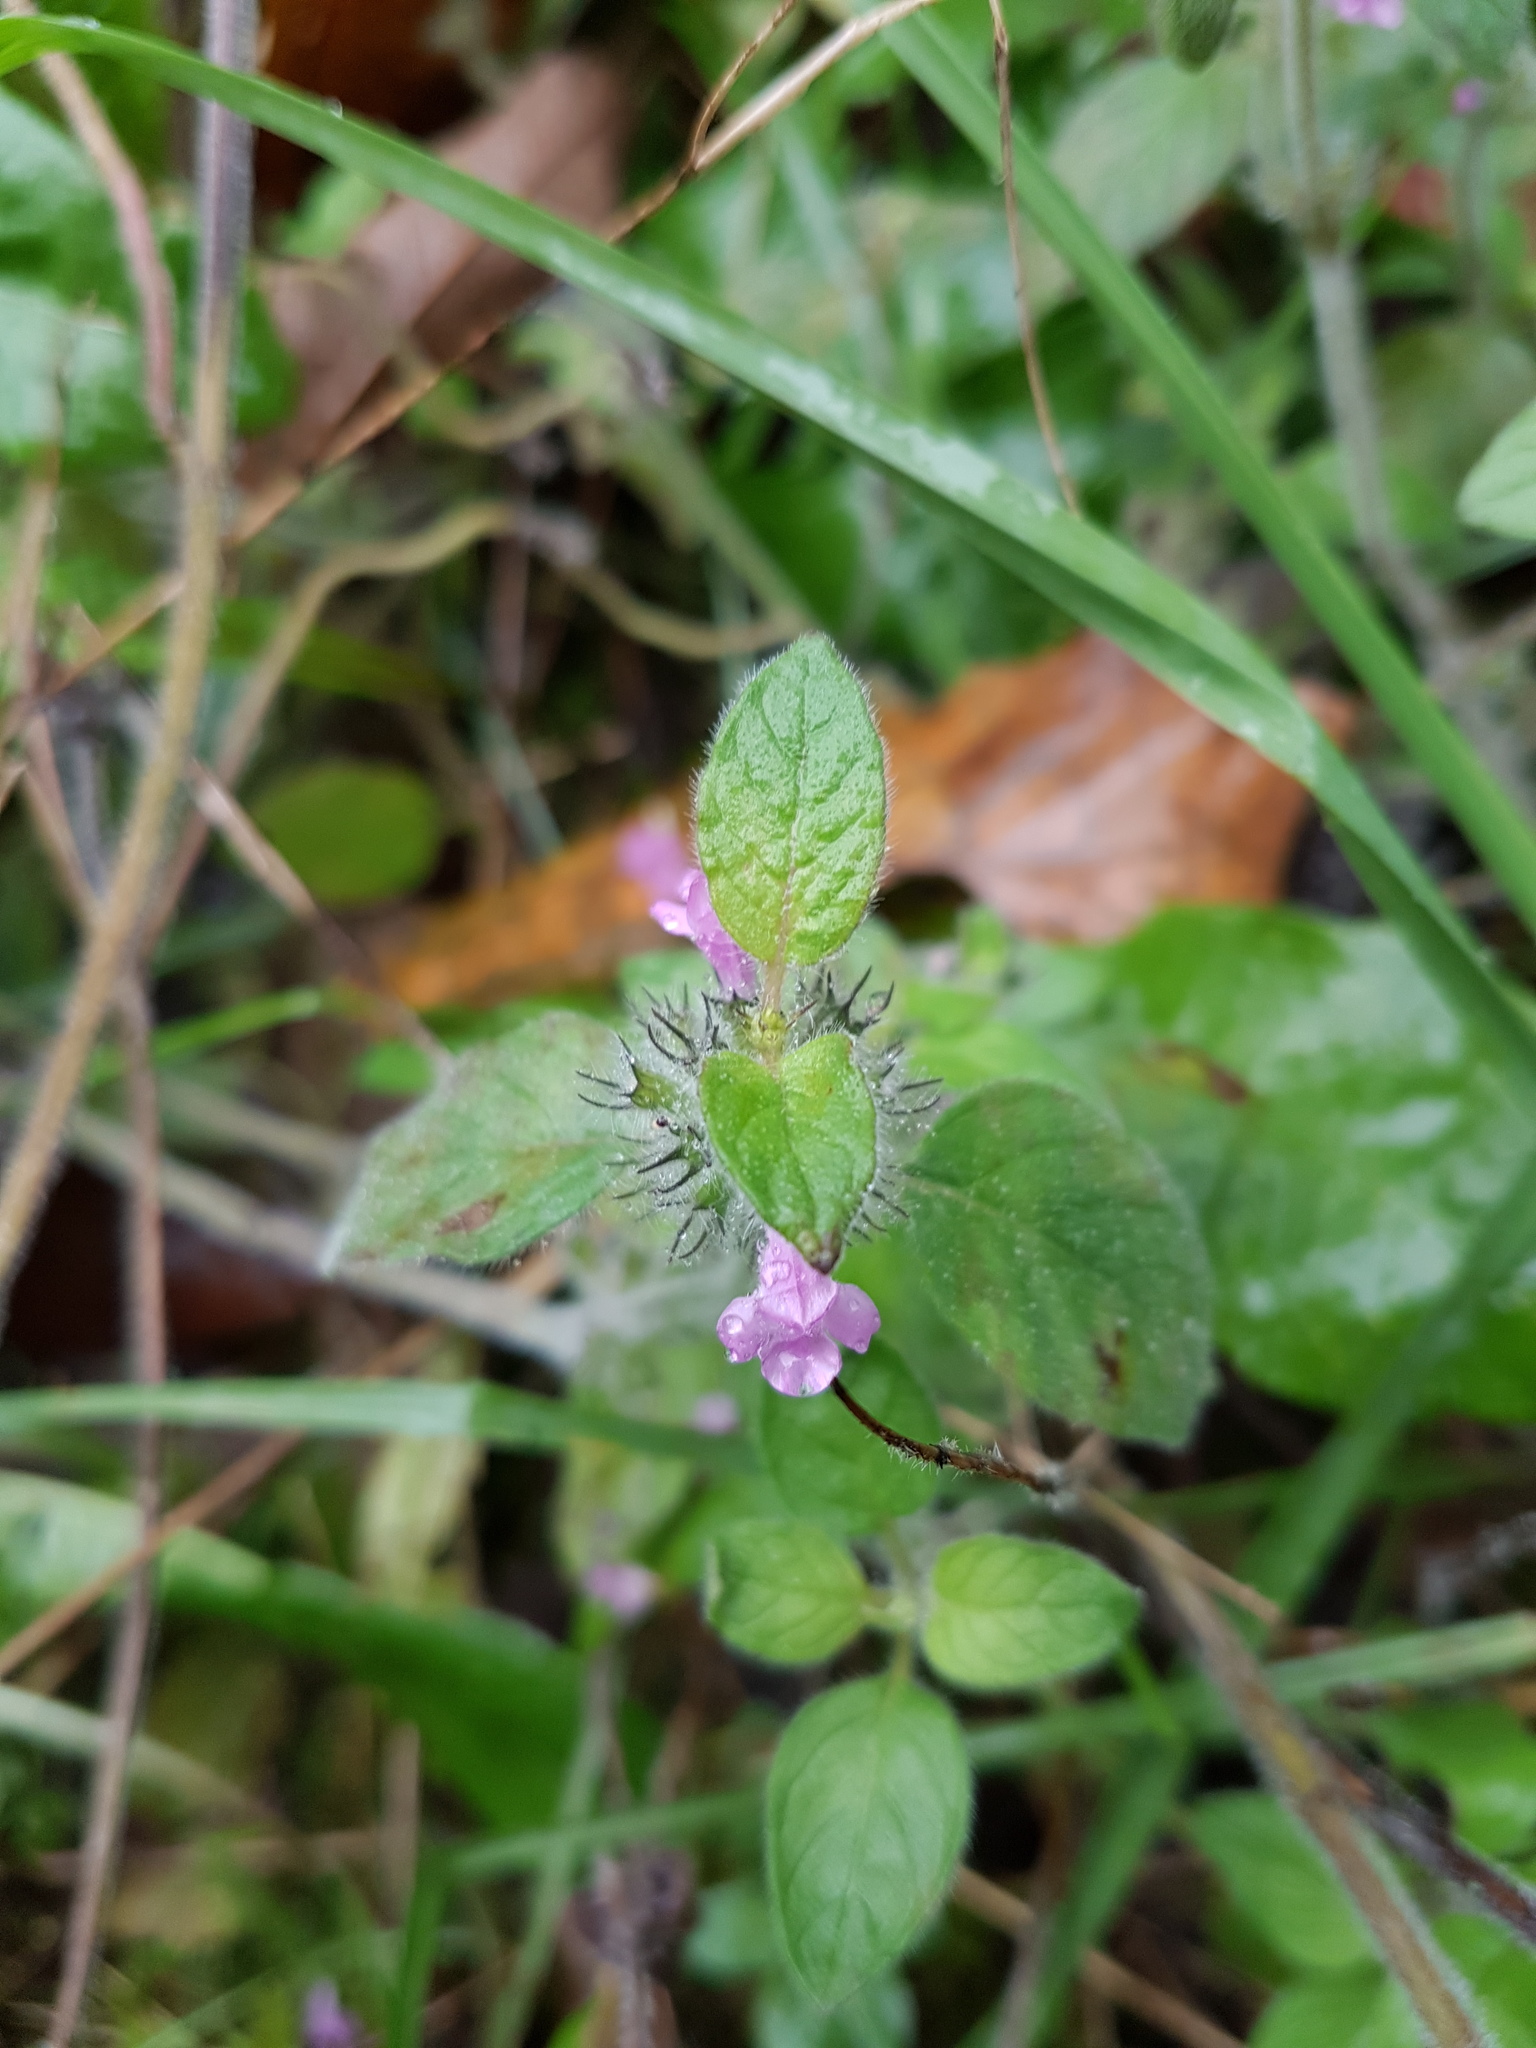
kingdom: Plantae
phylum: Tracheophyta
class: Magnoliopsida
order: Lamiales
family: Lamiaceae
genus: Clinopodium
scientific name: Clinopodium vulgare
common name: Wild basil
